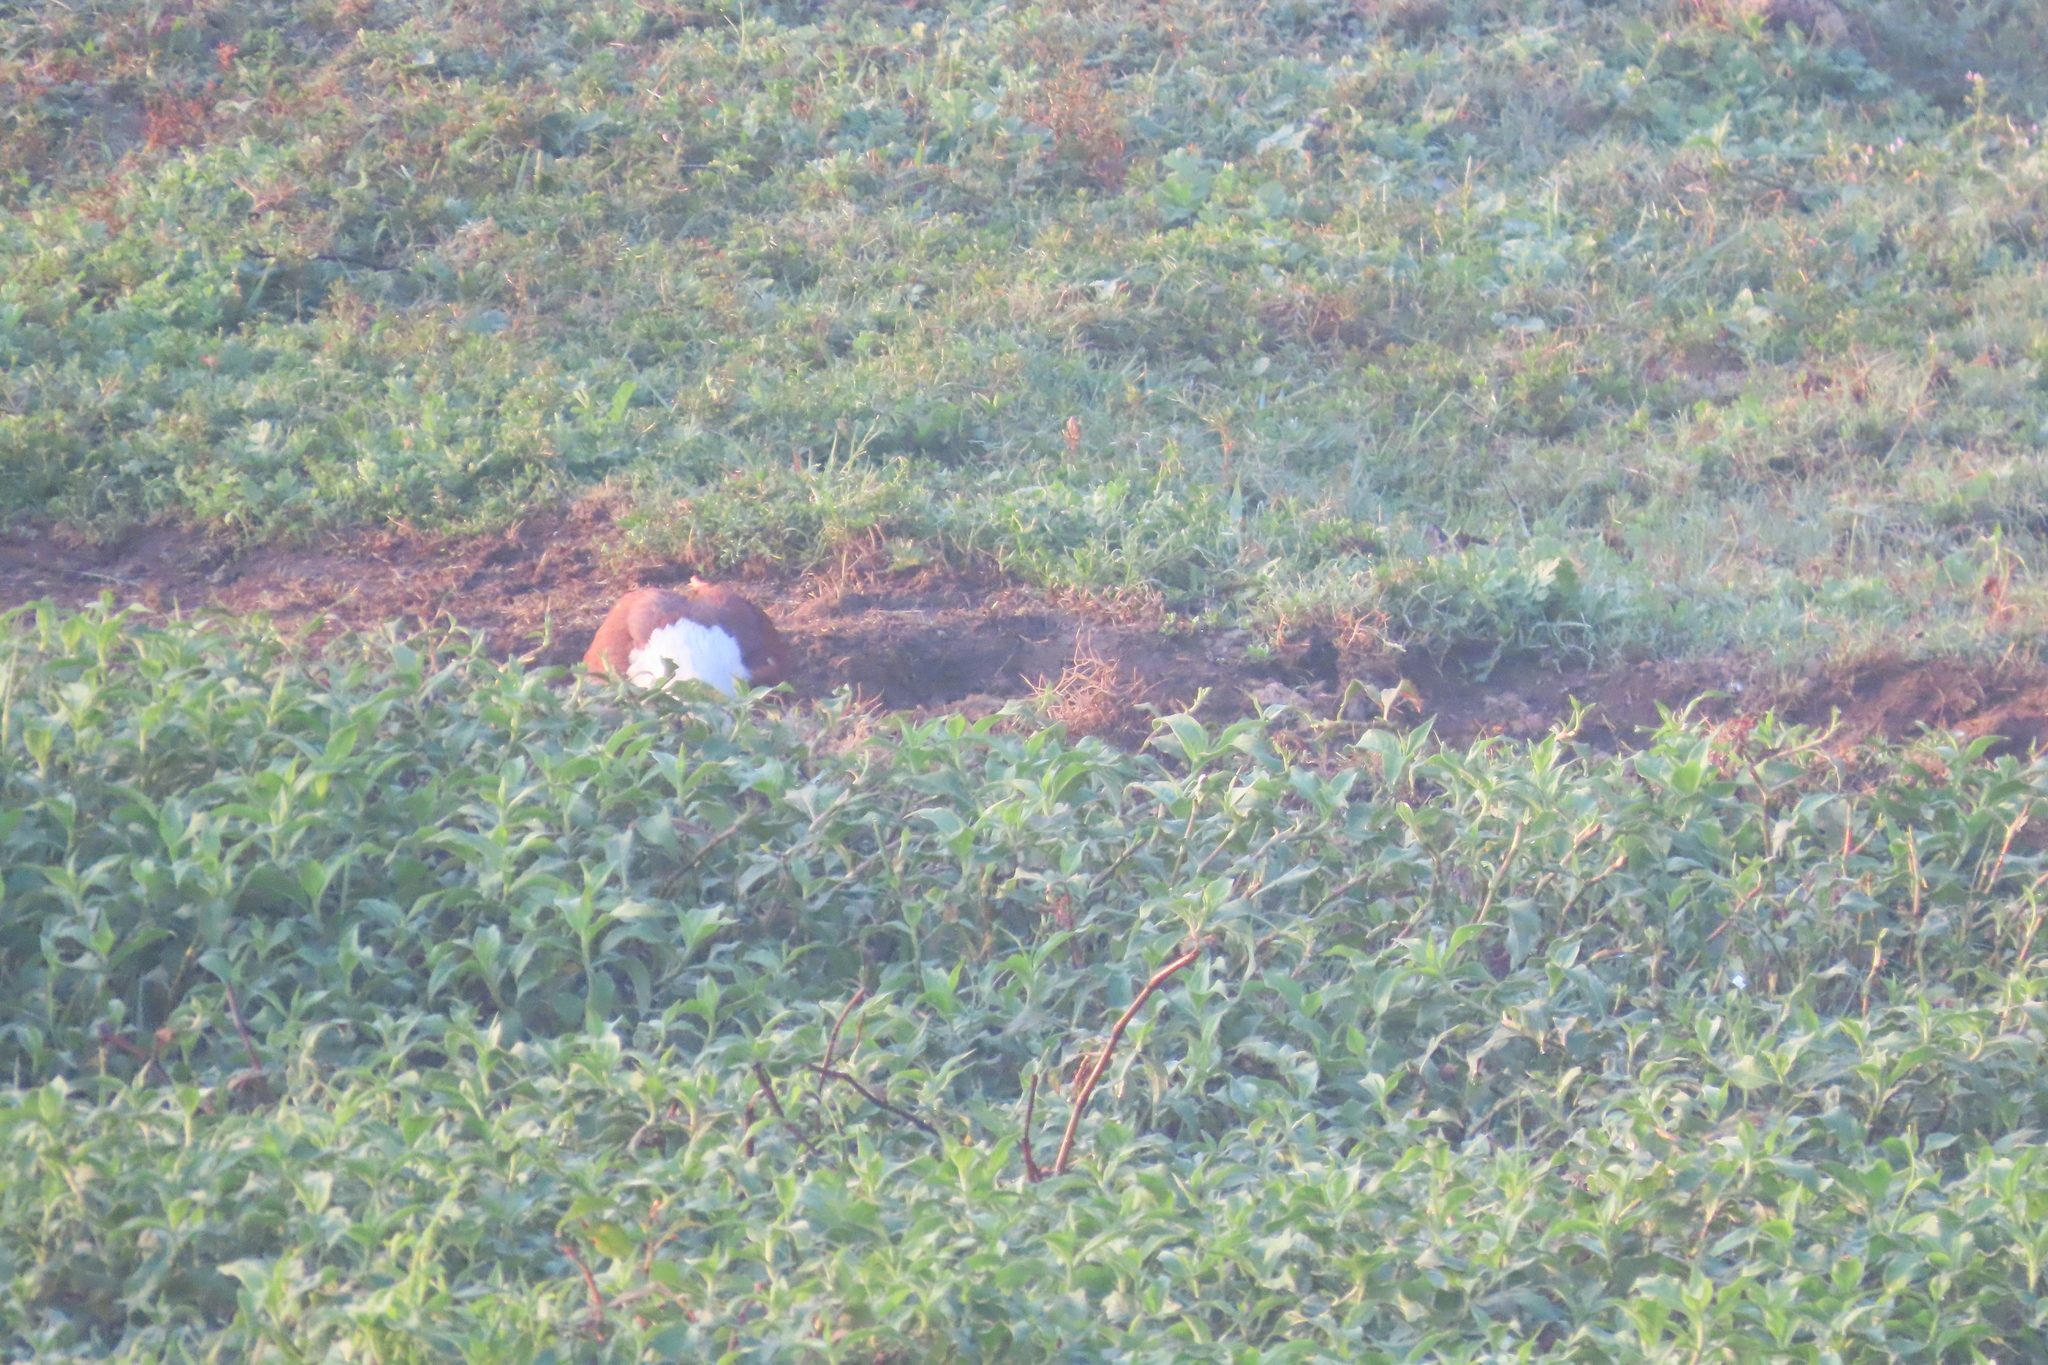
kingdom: Animalia
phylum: Chordata
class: Aves
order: Accipitriformes
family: Accipitridae
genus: Haliastur
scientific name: Haliastur indus
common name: Brahminy kite
